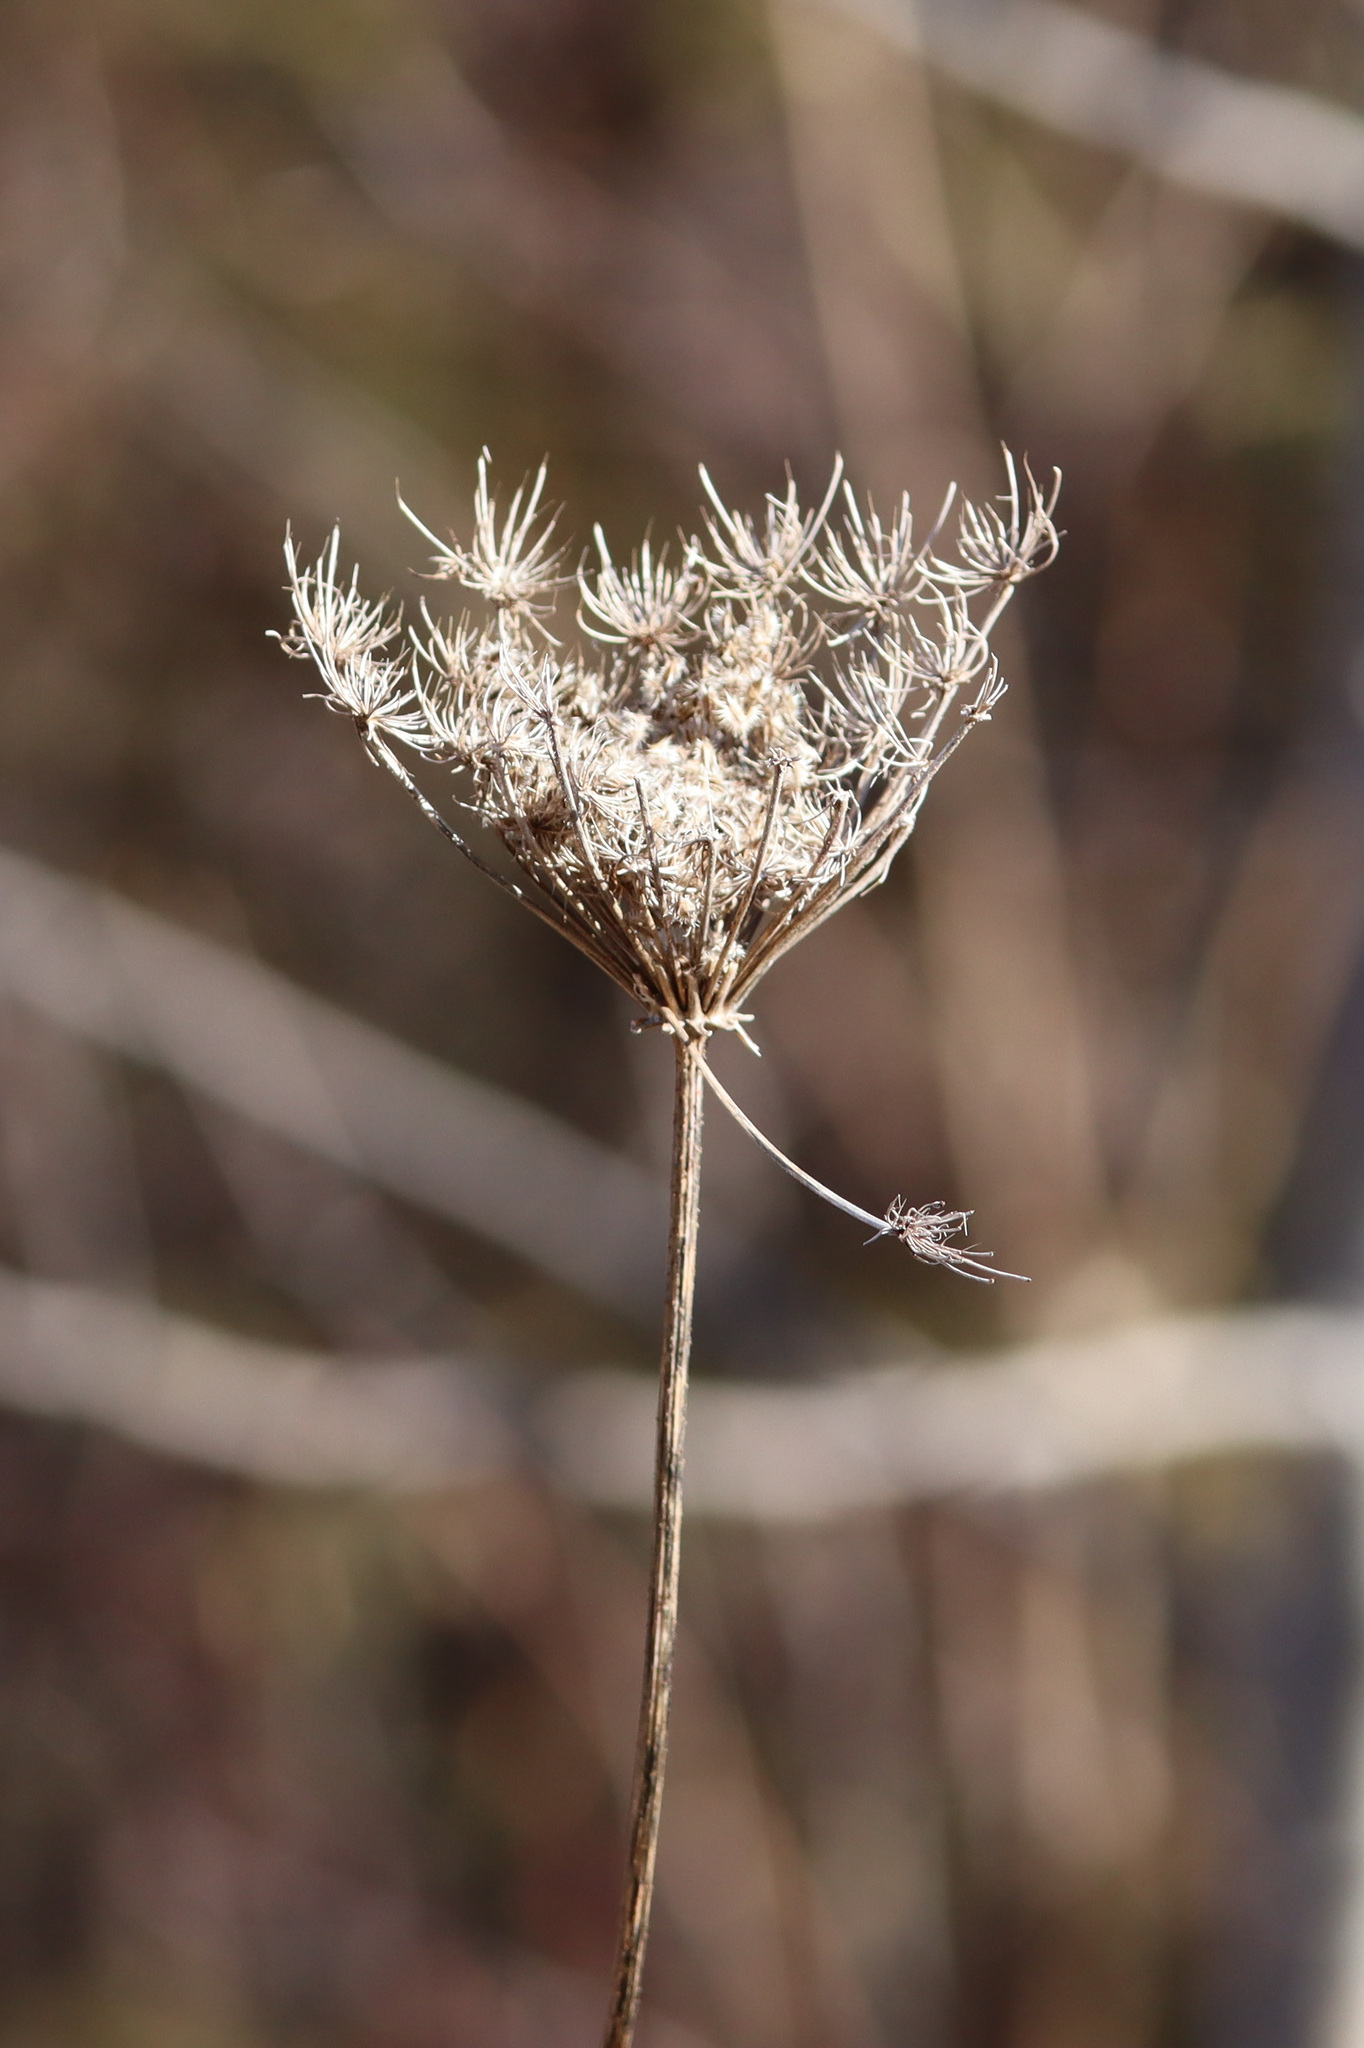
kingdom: Plantae
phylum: Tracheophyta
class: Magnoliopsida
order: Apiales
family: Apiaceae
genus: Daucus
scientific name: Daucus carota
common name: Wild carrot
